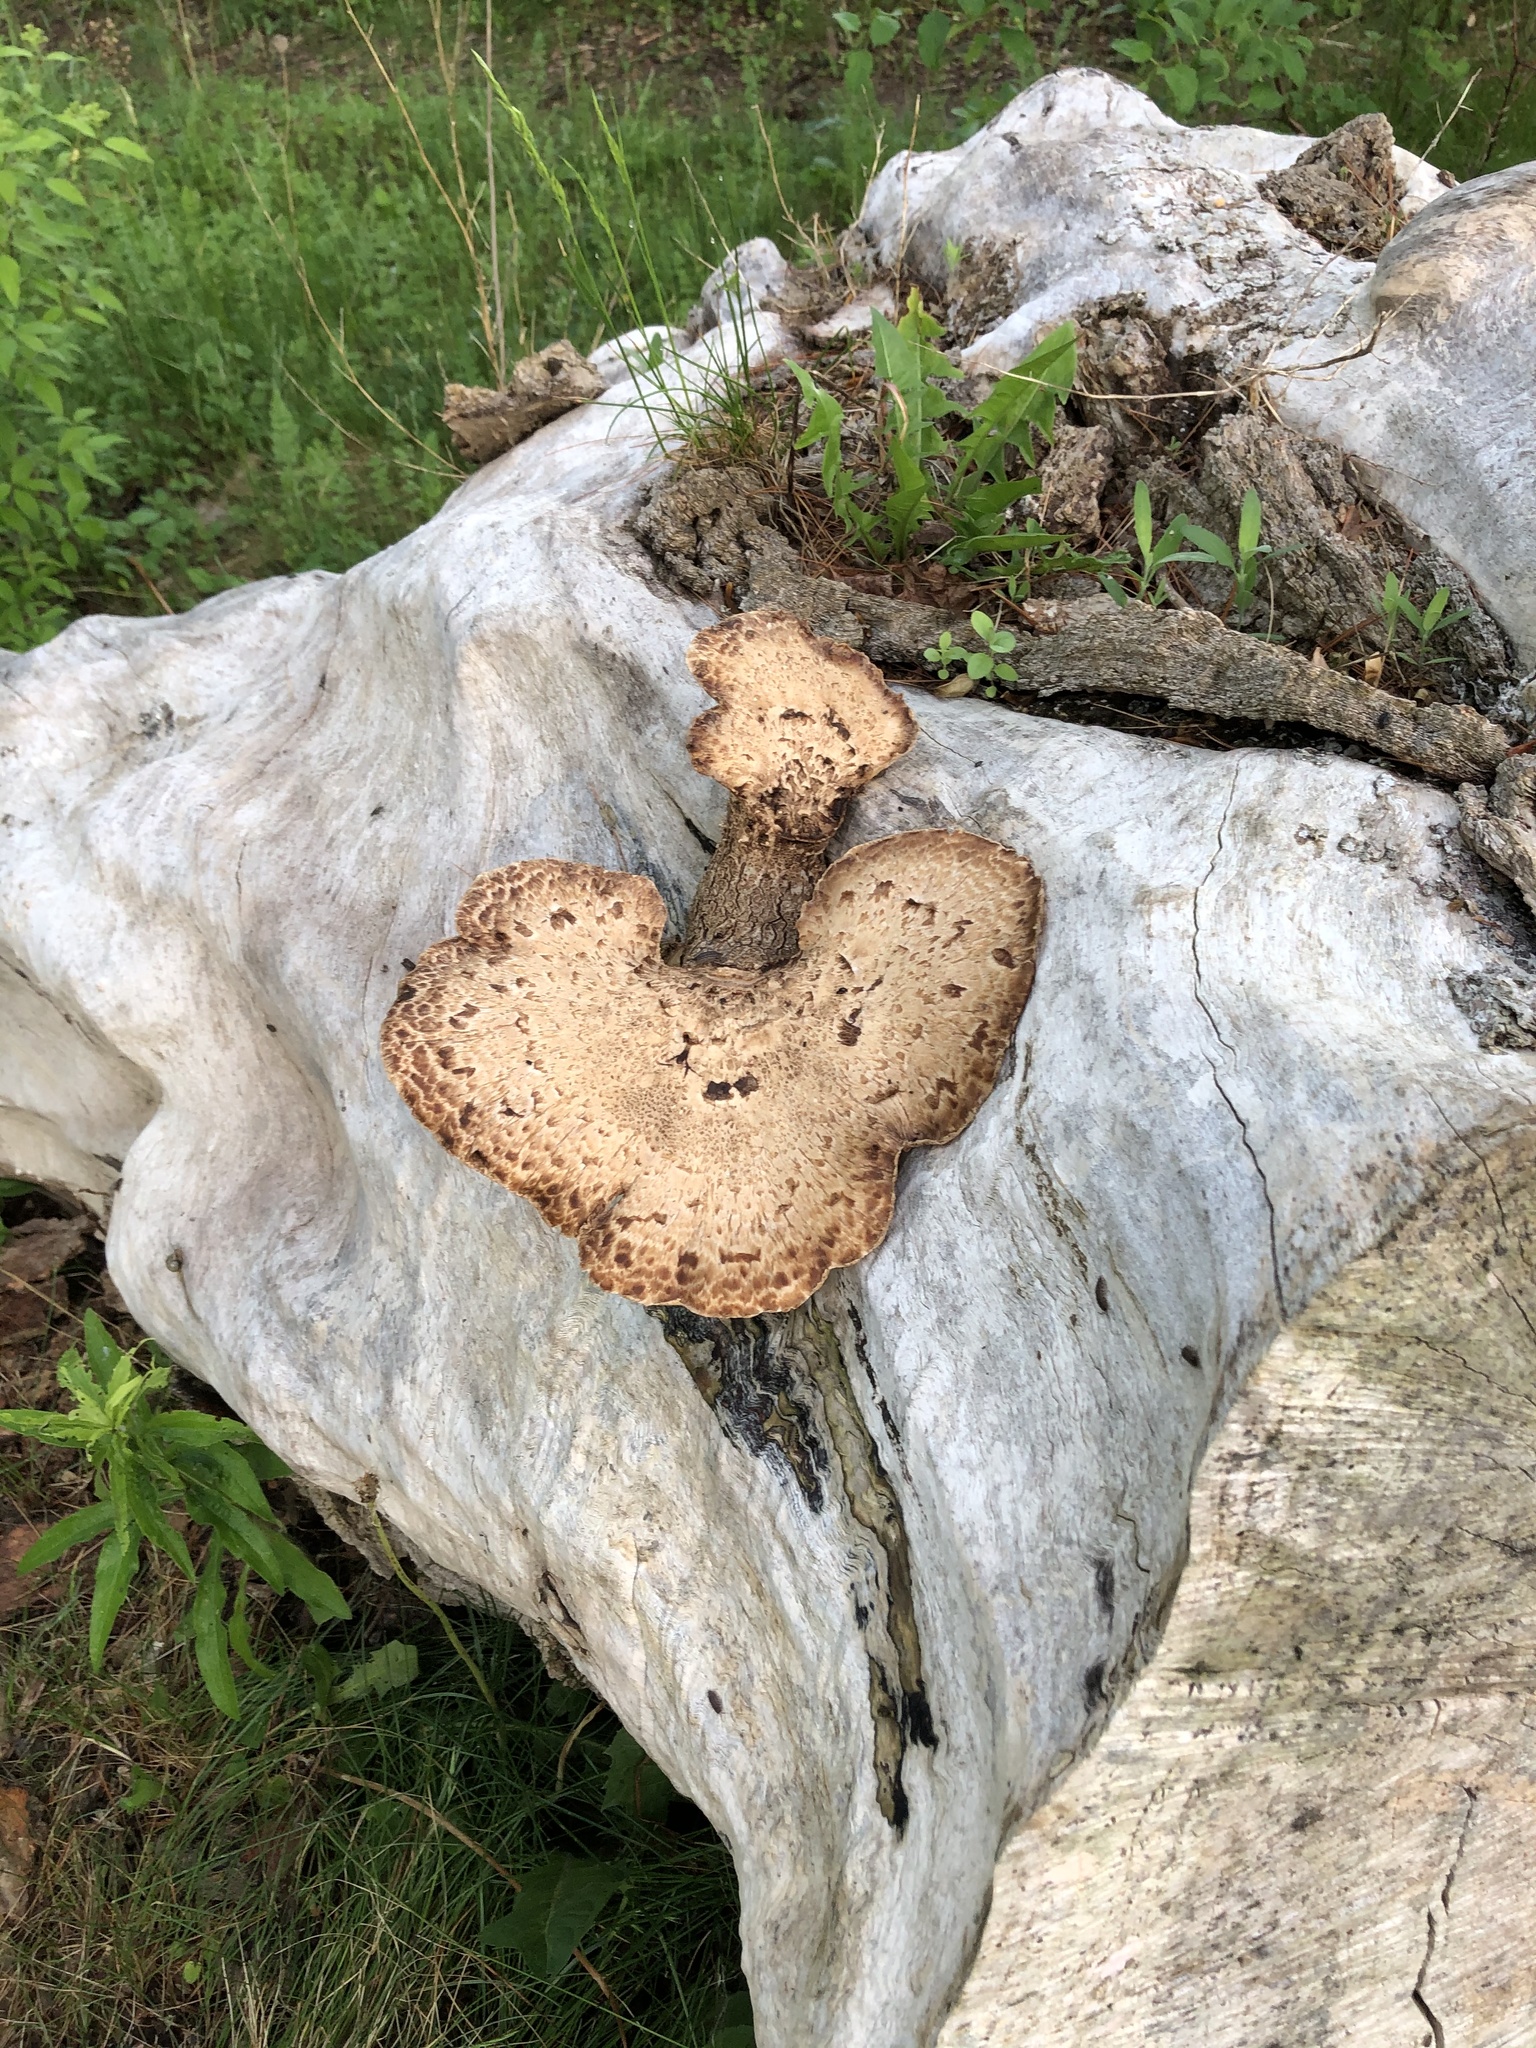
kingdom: Fungi
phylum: Basidiomycota
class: Agaricomycetes
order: Polyporales
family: Polyporaceae
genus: Cerioporus
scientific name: Cerioporus squamosus
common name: Dryad's saddle
